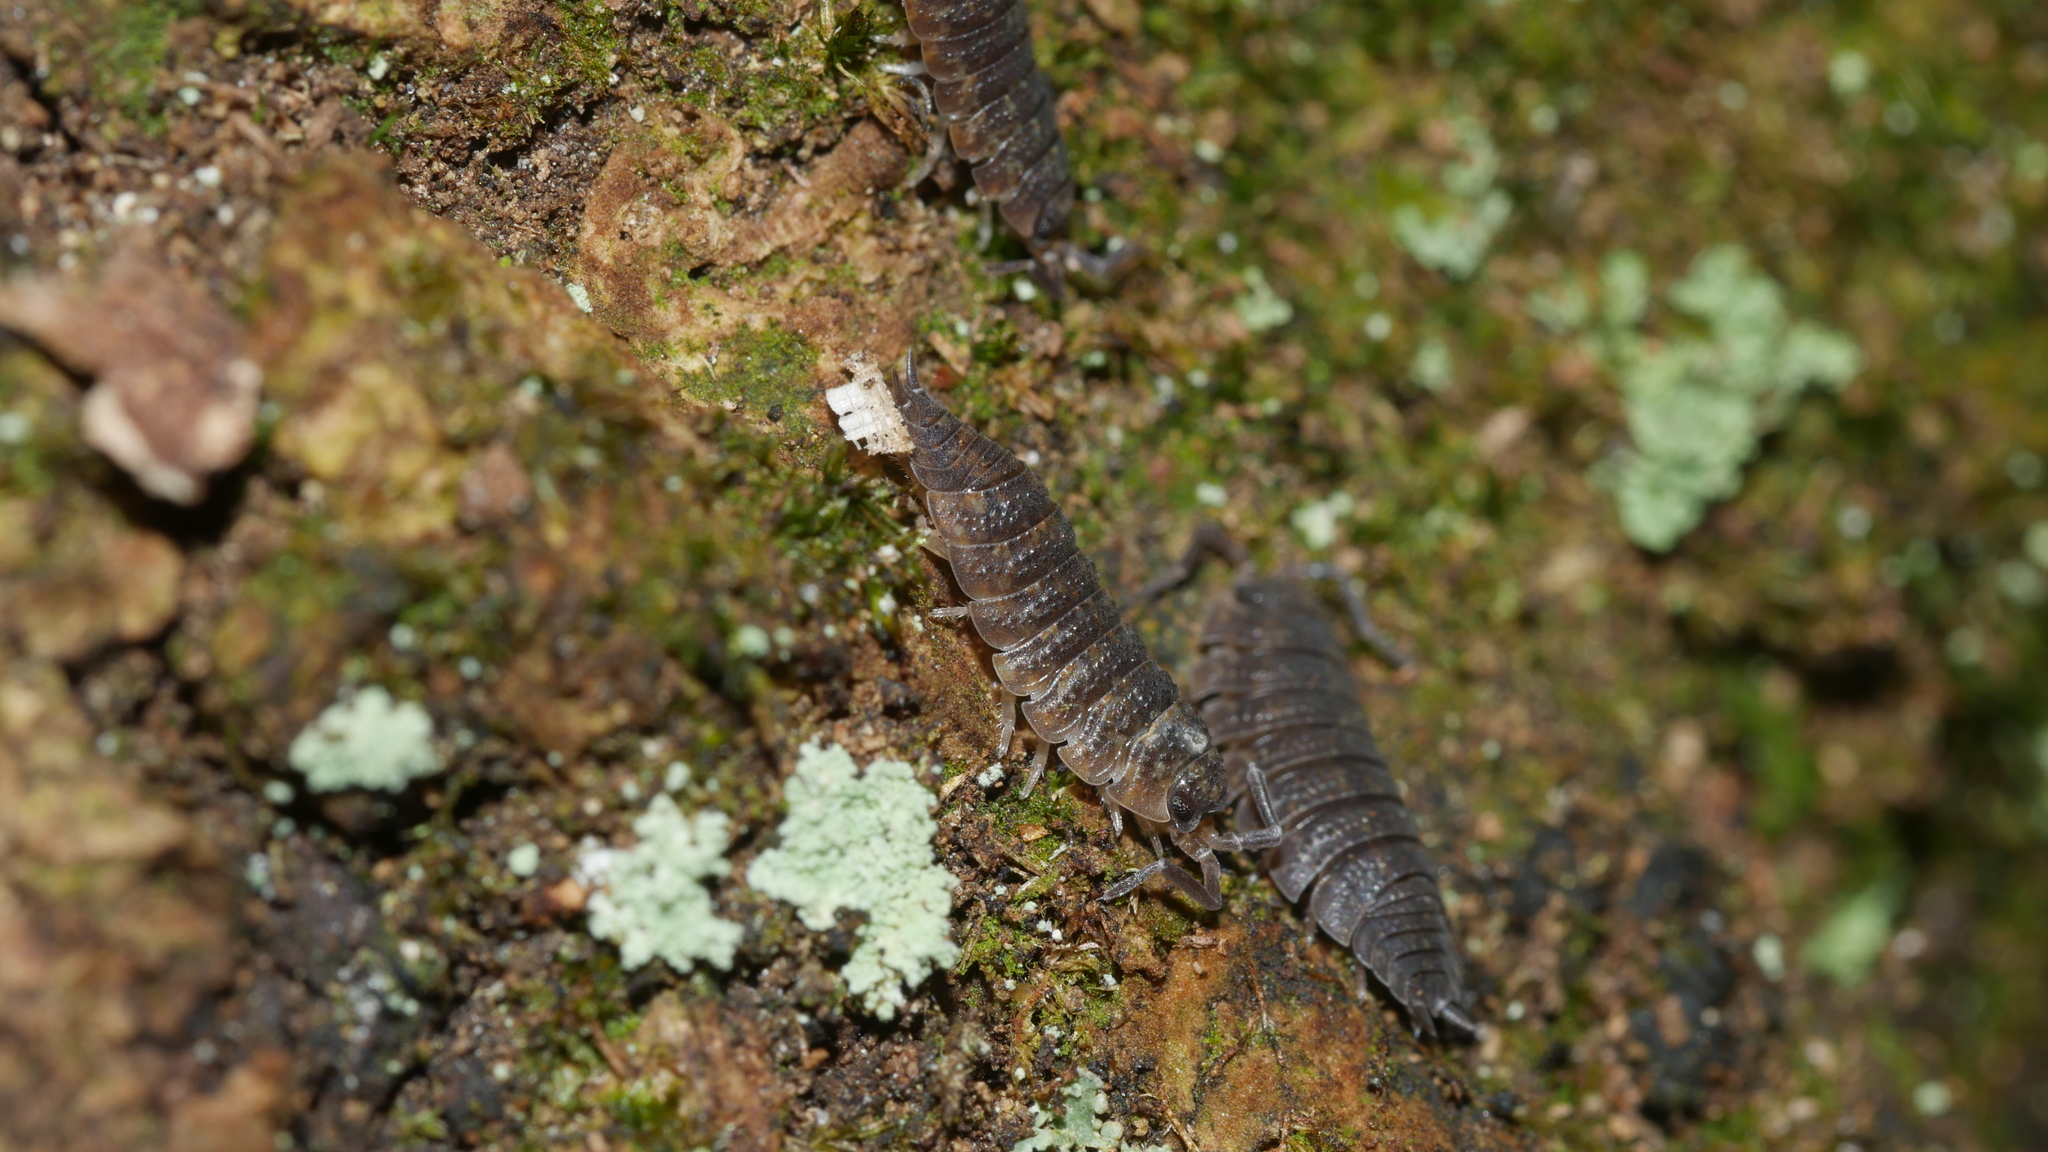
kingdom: Animalia
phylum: Arthropoda
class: Malacostraca
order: Isopoda
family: Porcellionidae
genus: Porcellio
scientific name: Porcellio scaber
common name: Common rough woodlouse
